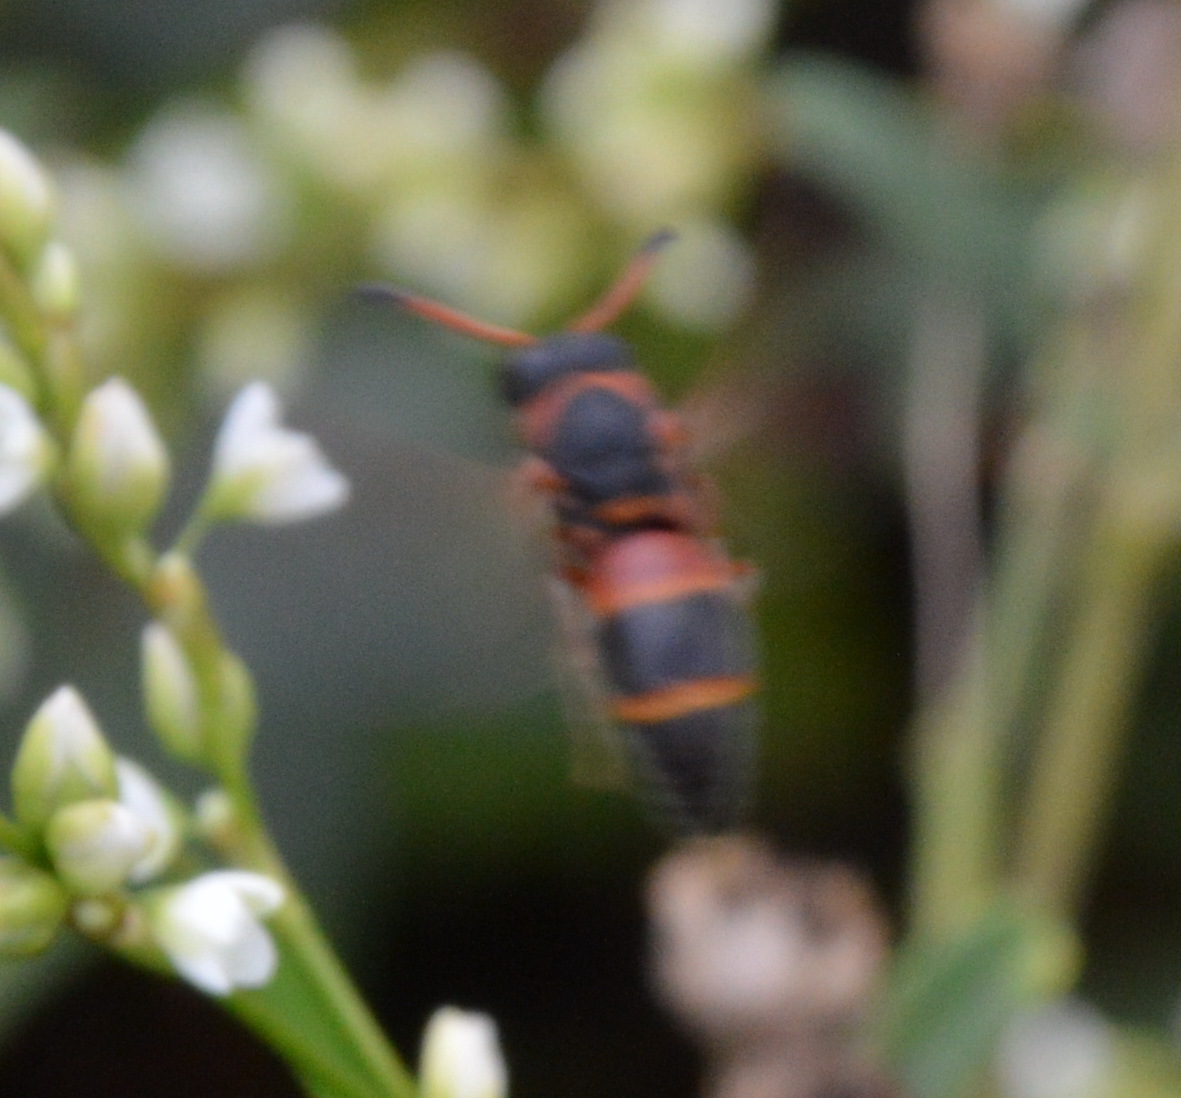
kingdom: Animalia
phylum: Arthropoda
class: Insecta
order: Hymenoptera
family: Eumenidae
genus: Pachodynerus
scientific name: Pachodynerus erynnis
